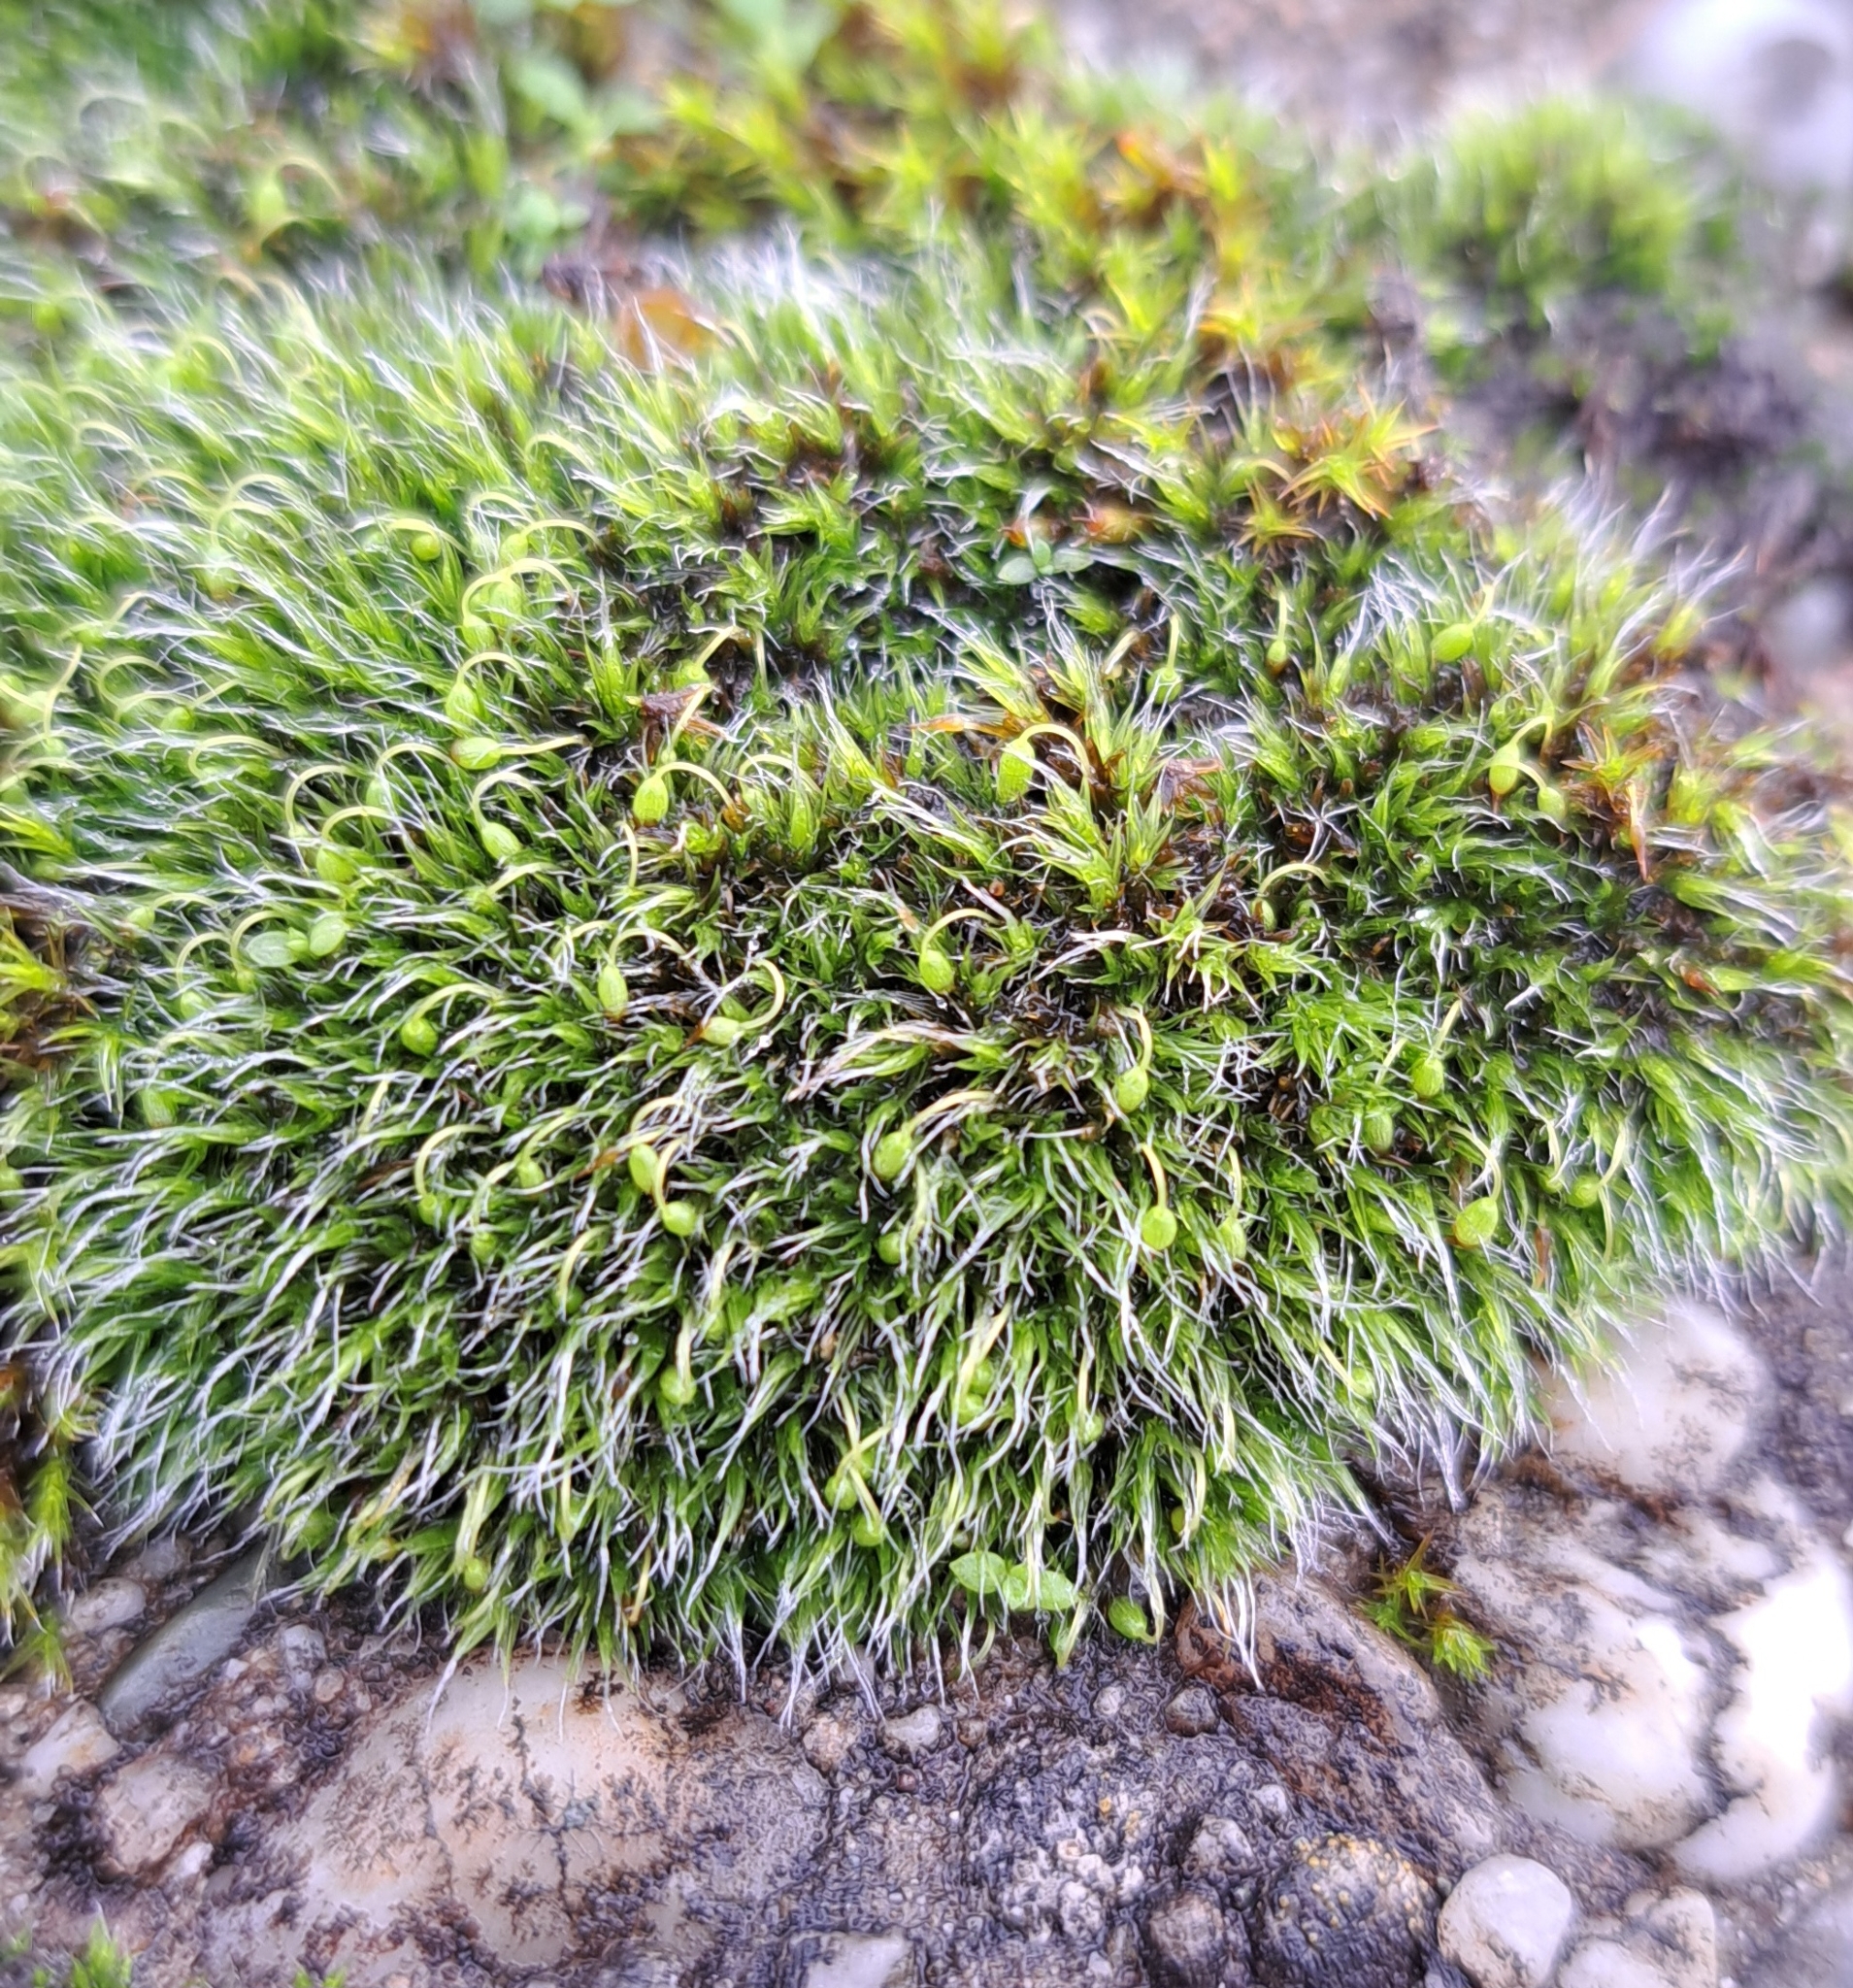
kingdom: Plantae
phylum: Bryophyta
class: Bryopsida
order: Grimmiales
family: Grimmiaceae
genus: Grimmia
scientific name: Grimmia pulvinata
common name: Grey-cushioned grimmia
